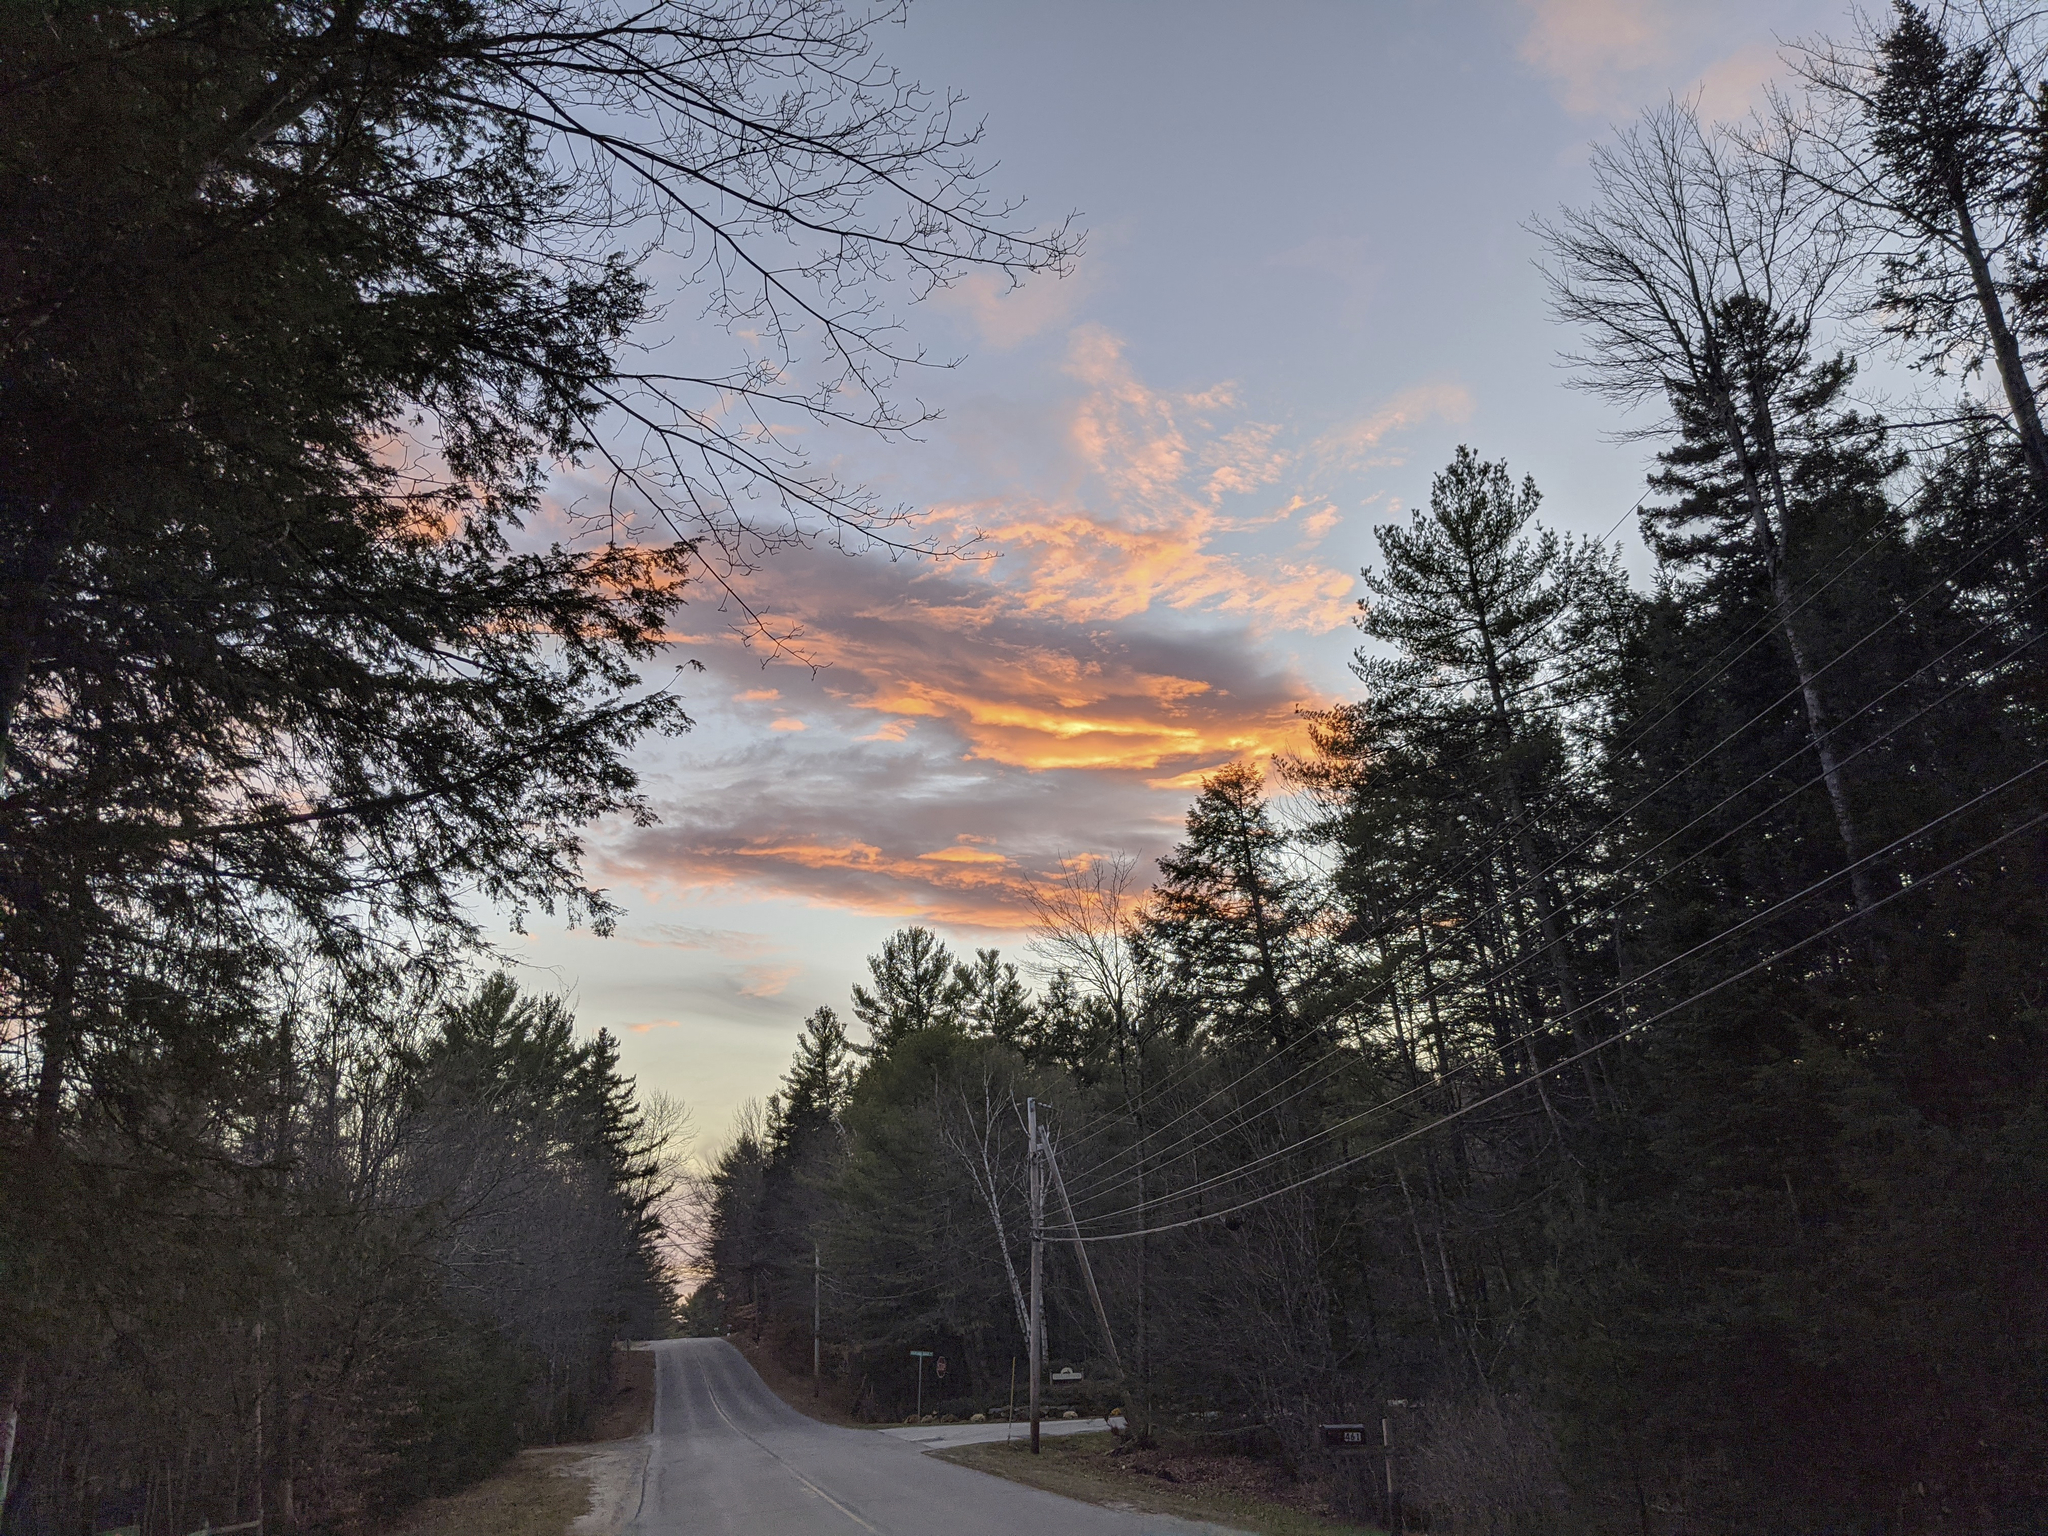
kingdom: Plantae
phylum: Tracheophyta
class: Pinopsida
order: Pinales
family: Pinaceae
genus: Pinus
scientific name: Pinus strobus
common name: Weymouth pine
